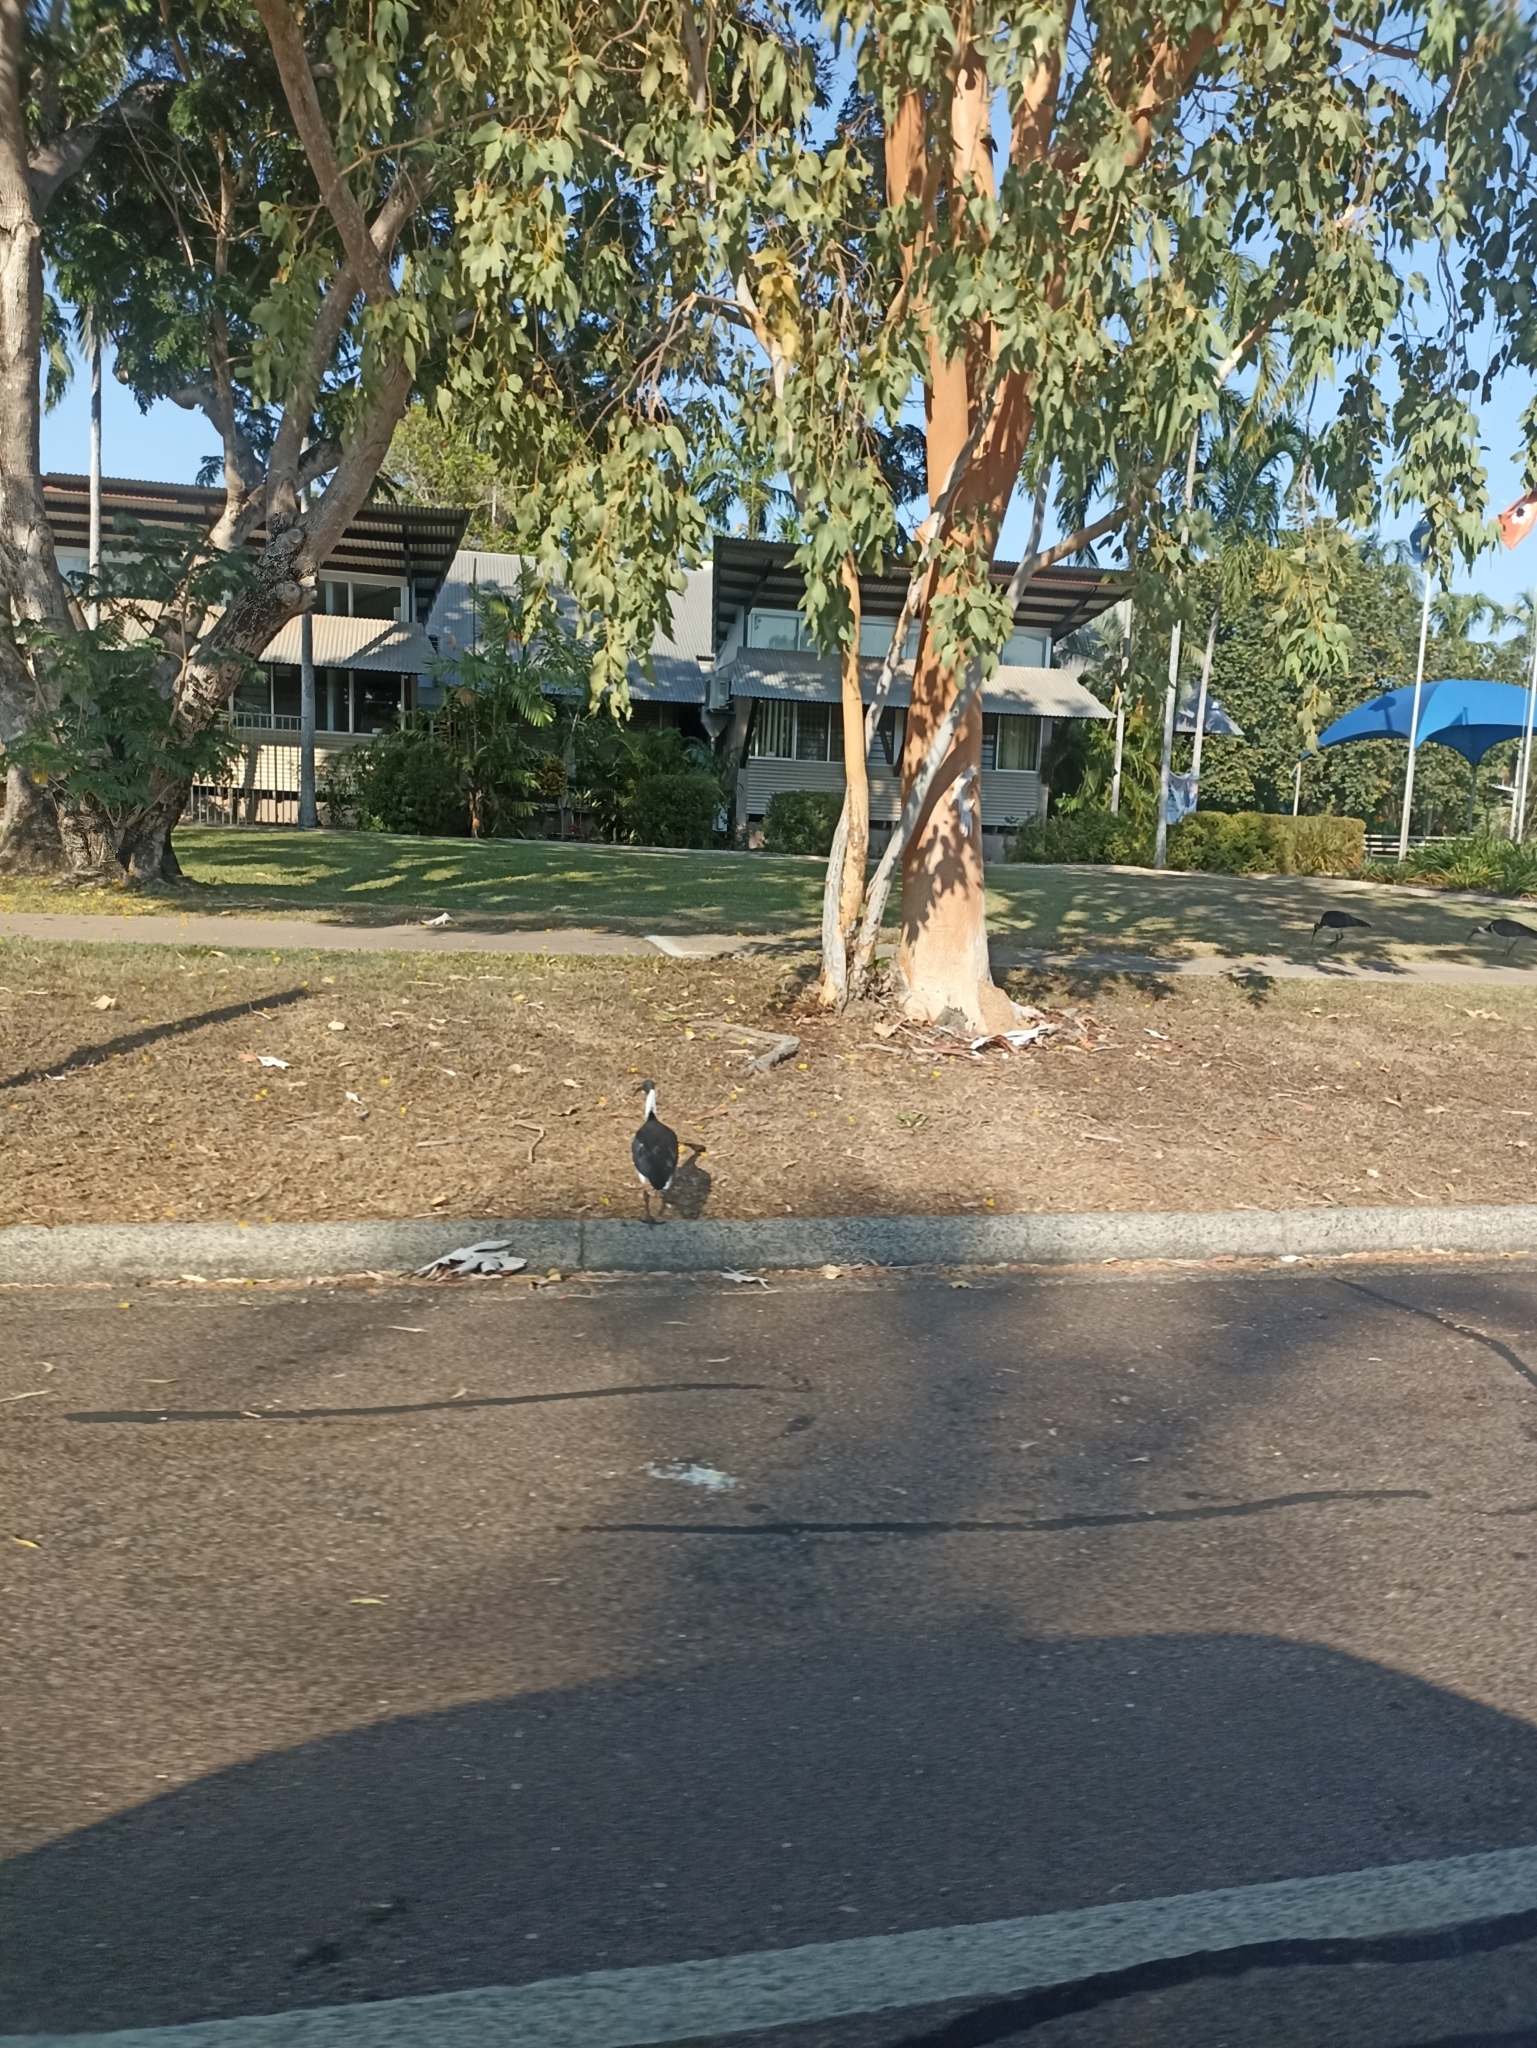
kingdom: Animalia
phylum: Chordata
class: Aves
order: Pelecaniformes
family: Threskiornithidae
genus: Threskiornis
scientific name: Threskiornis spinicollis
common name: Straw-necked ibis
